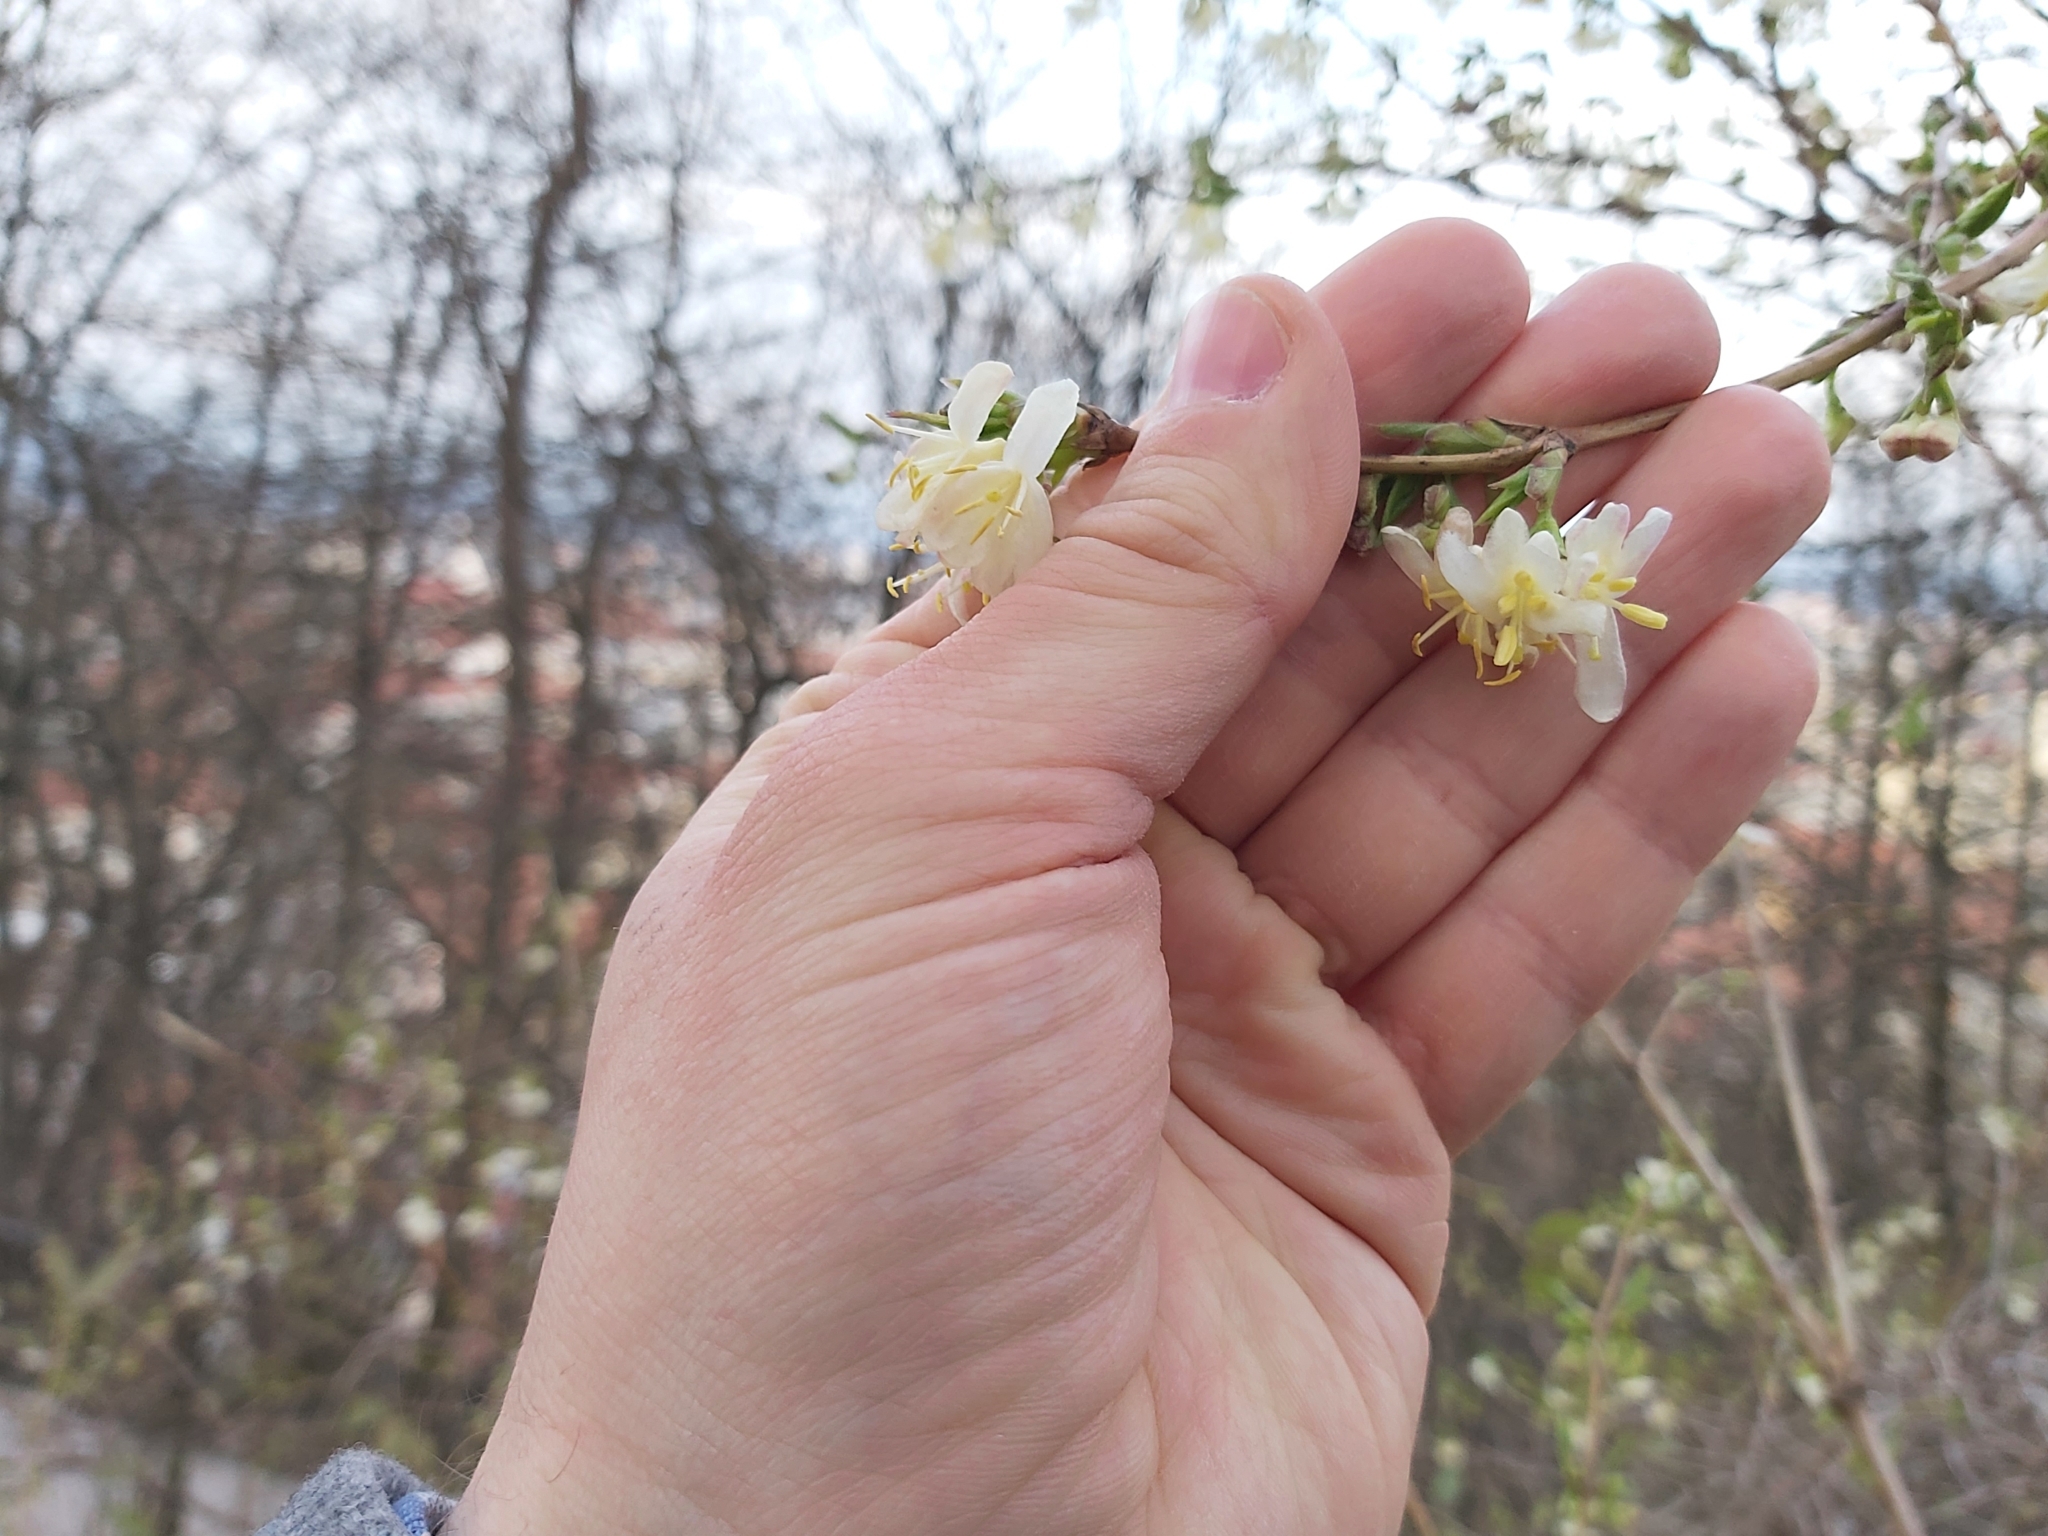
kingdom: Plantae
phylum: Tracheophyta
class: Magnoliopsida
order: Dipsacales
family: Caprifoliaceae
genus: Lonicera
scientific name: Lonicera fragrantissima
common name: Fragrant honeysuckle
